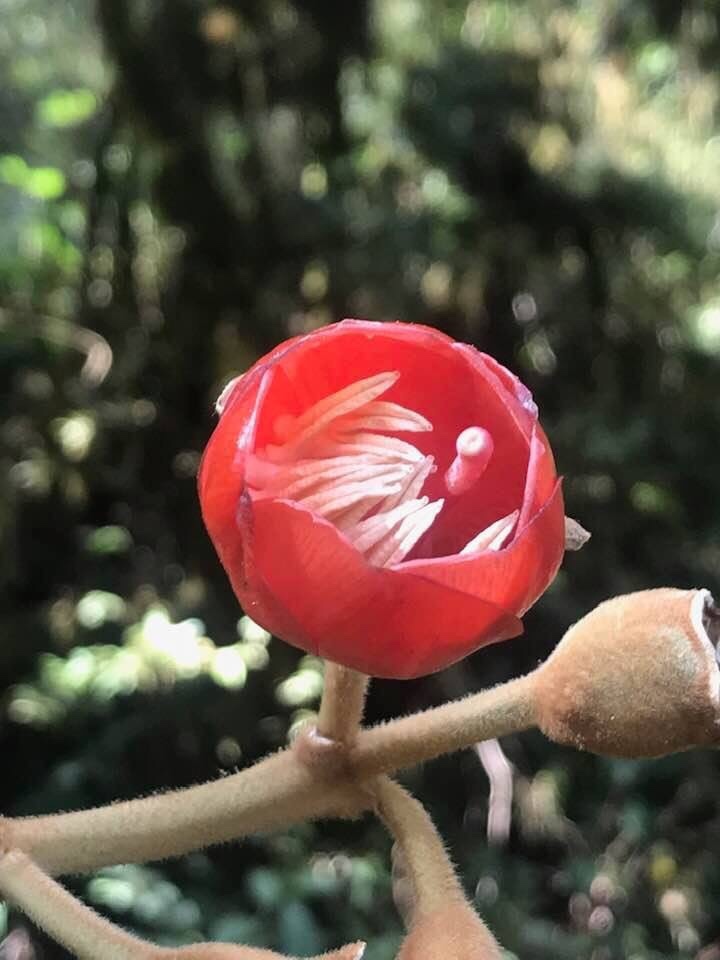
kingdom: Plantae
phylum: Tracheophyta
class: Magnoliopsida
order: Myrtales
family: Melastomataceae
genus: Meriania
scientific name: Meriania tomentosa
